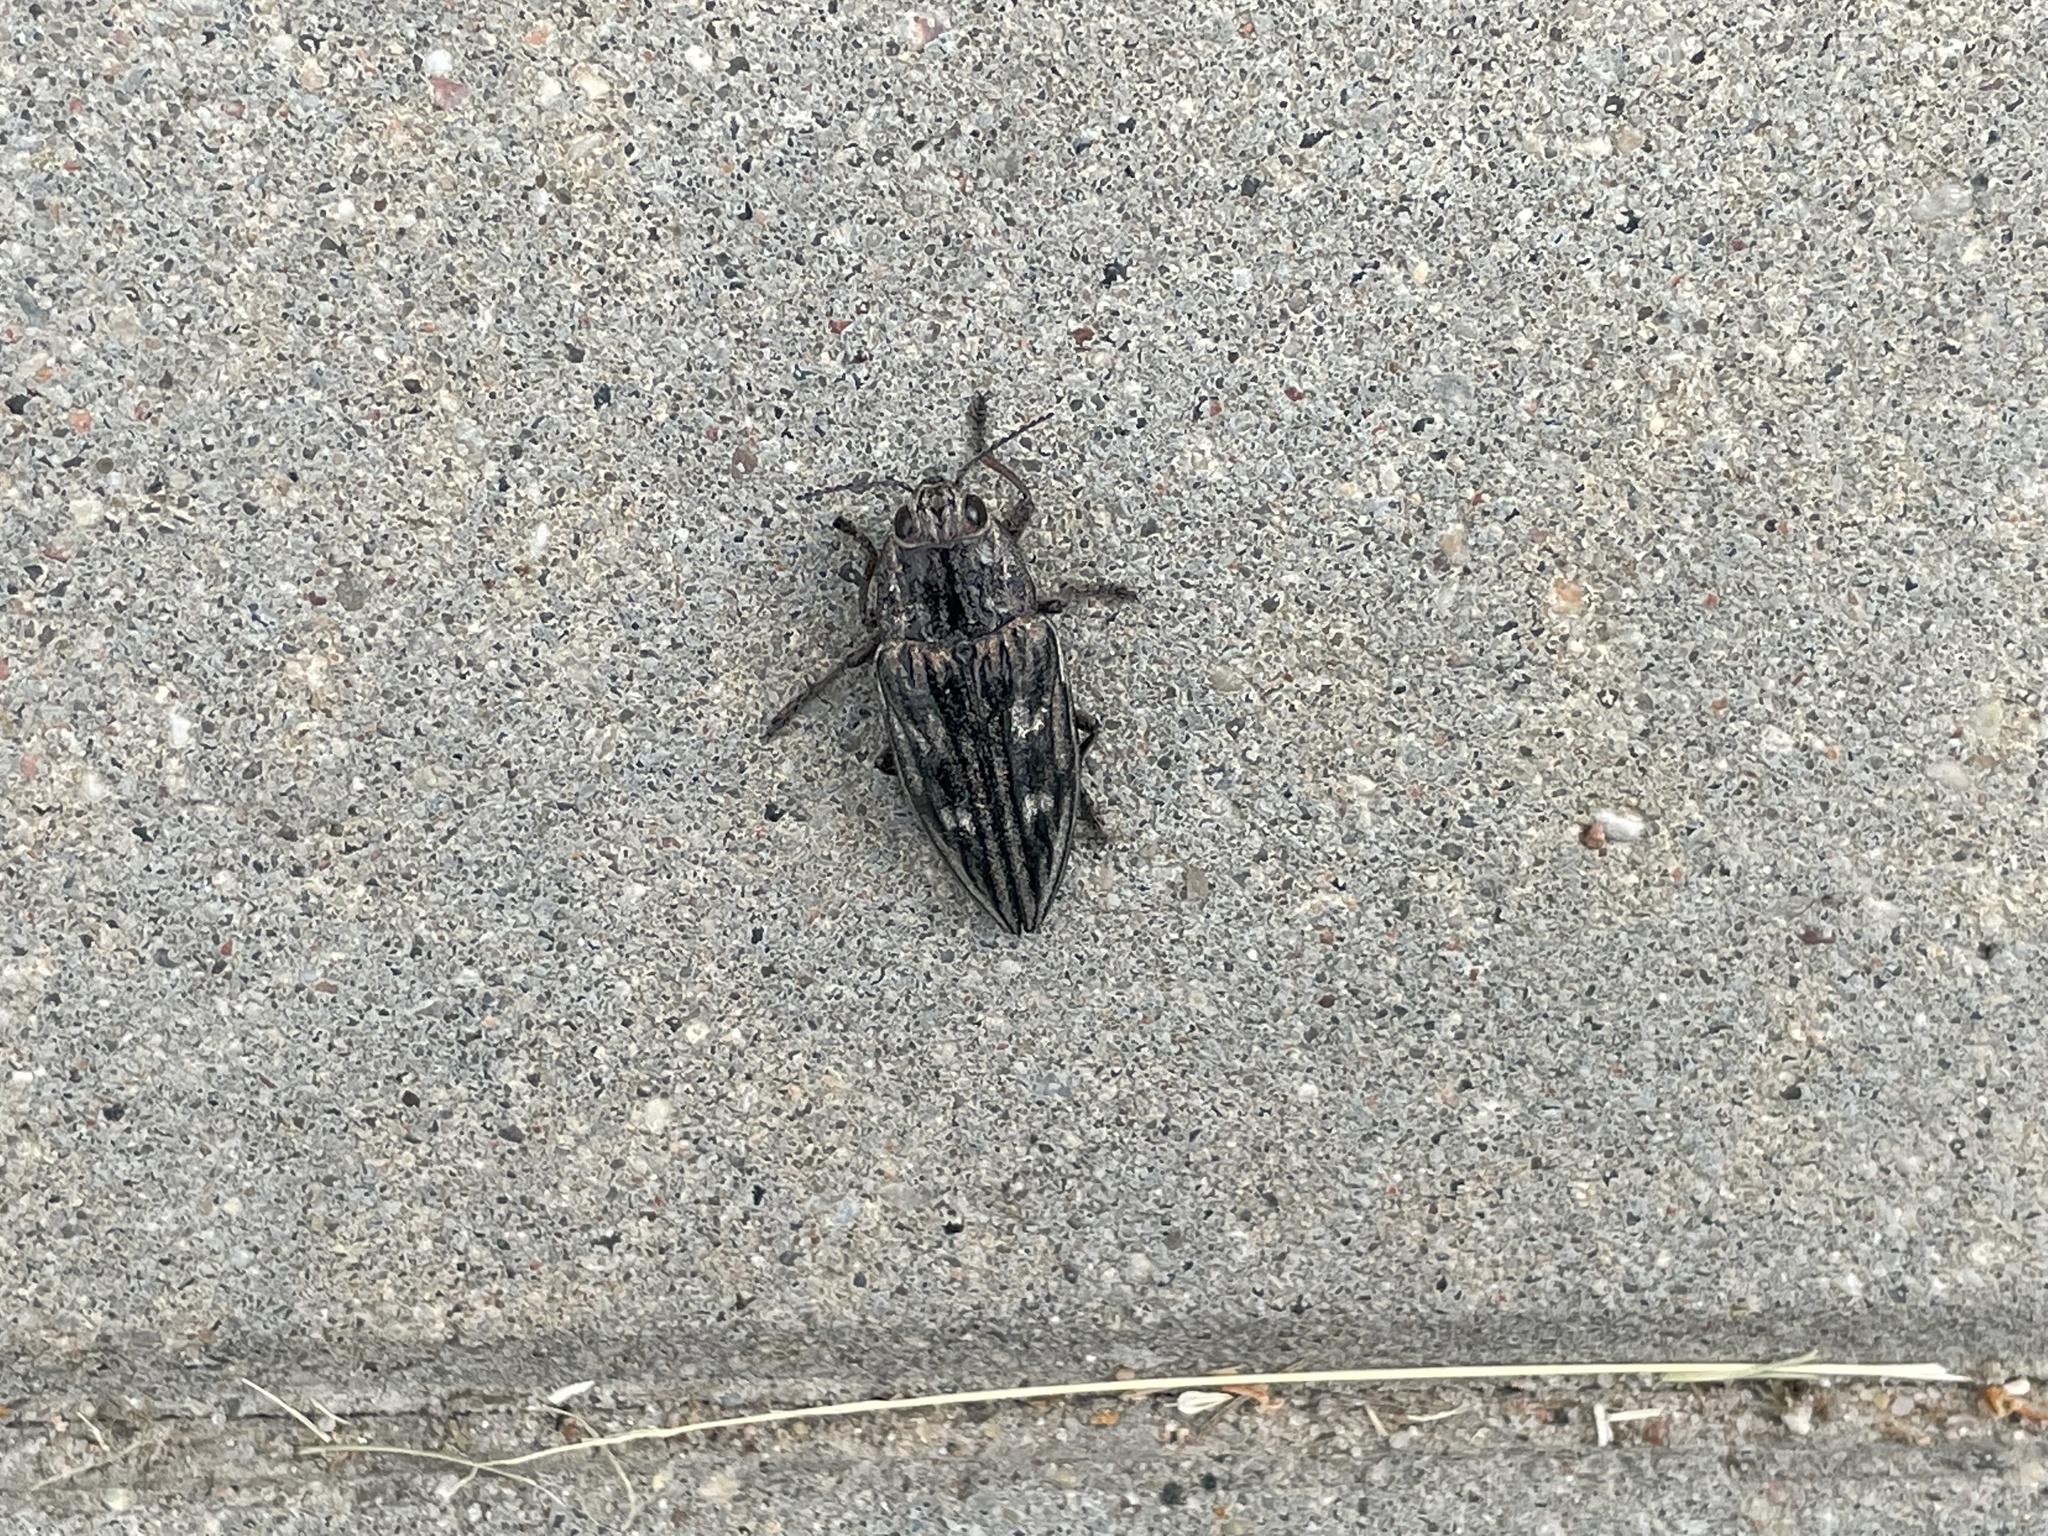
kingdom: Animalia
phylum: Arthropoda
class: Insecta
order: Coleoptera
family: Buprestidae
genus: Chalcophora
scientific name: Chalcophora mariana
